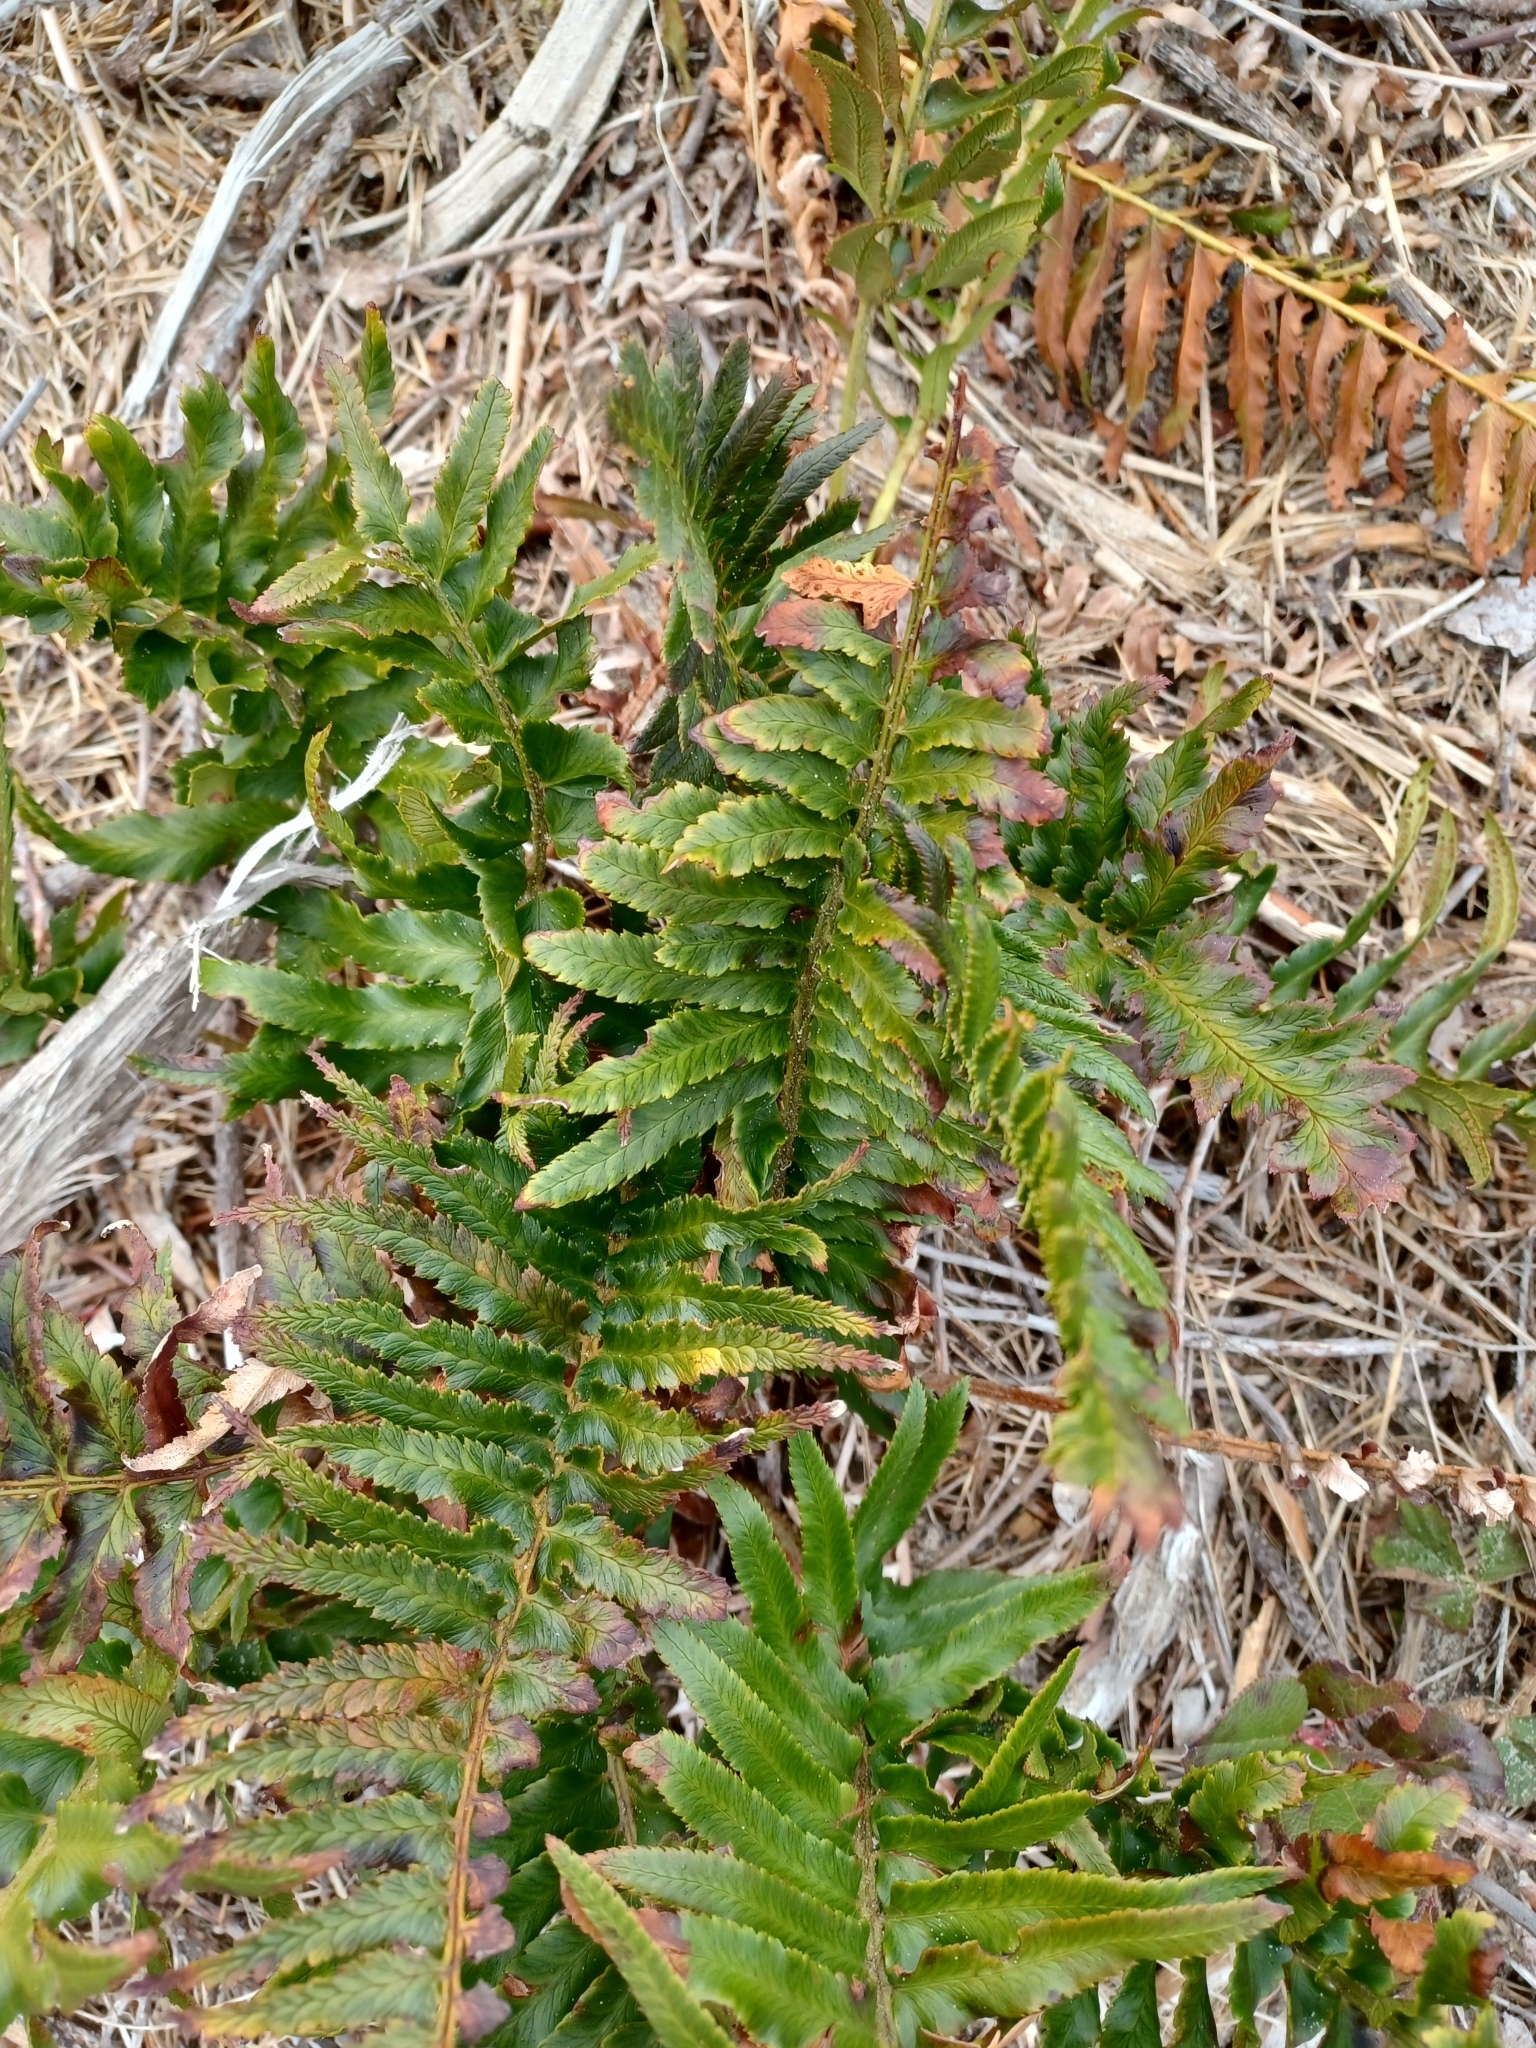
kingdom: Plantae
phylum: Tracheophyta
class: Polypodiopsida
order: Polypodiales
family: Dryopteridaceae
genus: Polystichum
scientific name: Polystichum munitum
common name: Western sword-fern
